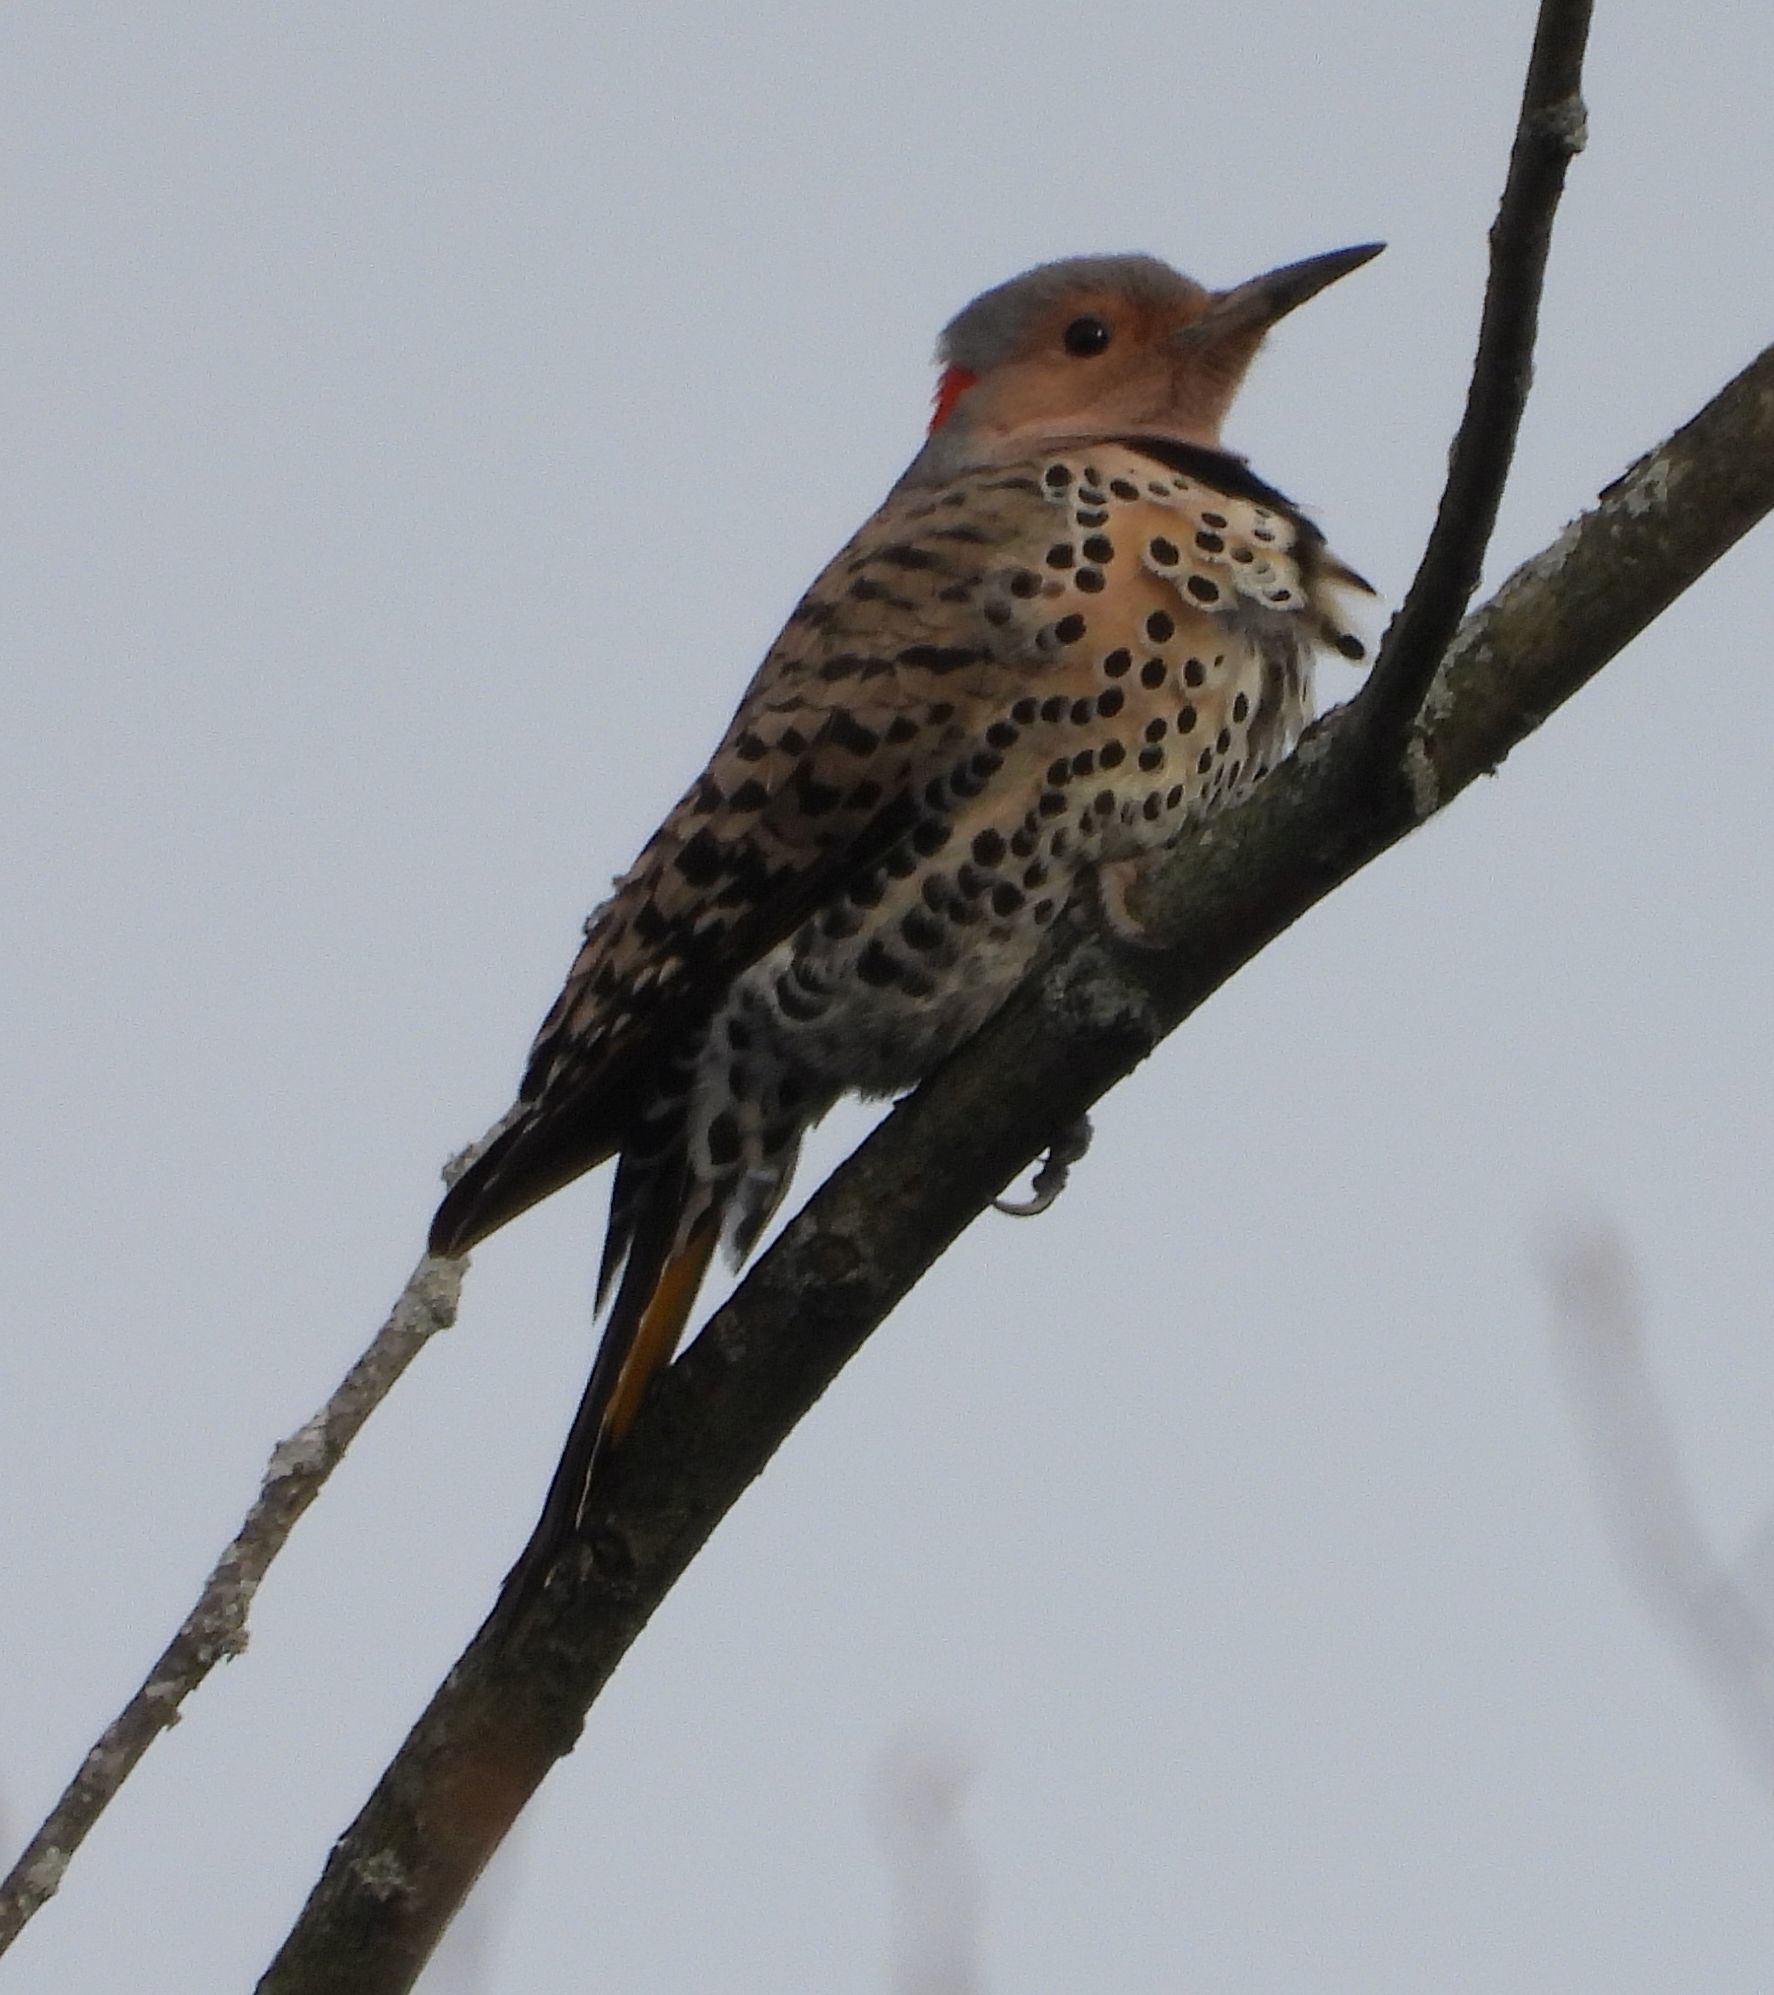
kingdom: Animalia
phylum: Chordata
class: Aves
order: Piciformes
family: Picidae
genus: Colaptes
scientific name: Colaptes auratus
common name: Northern flicker
